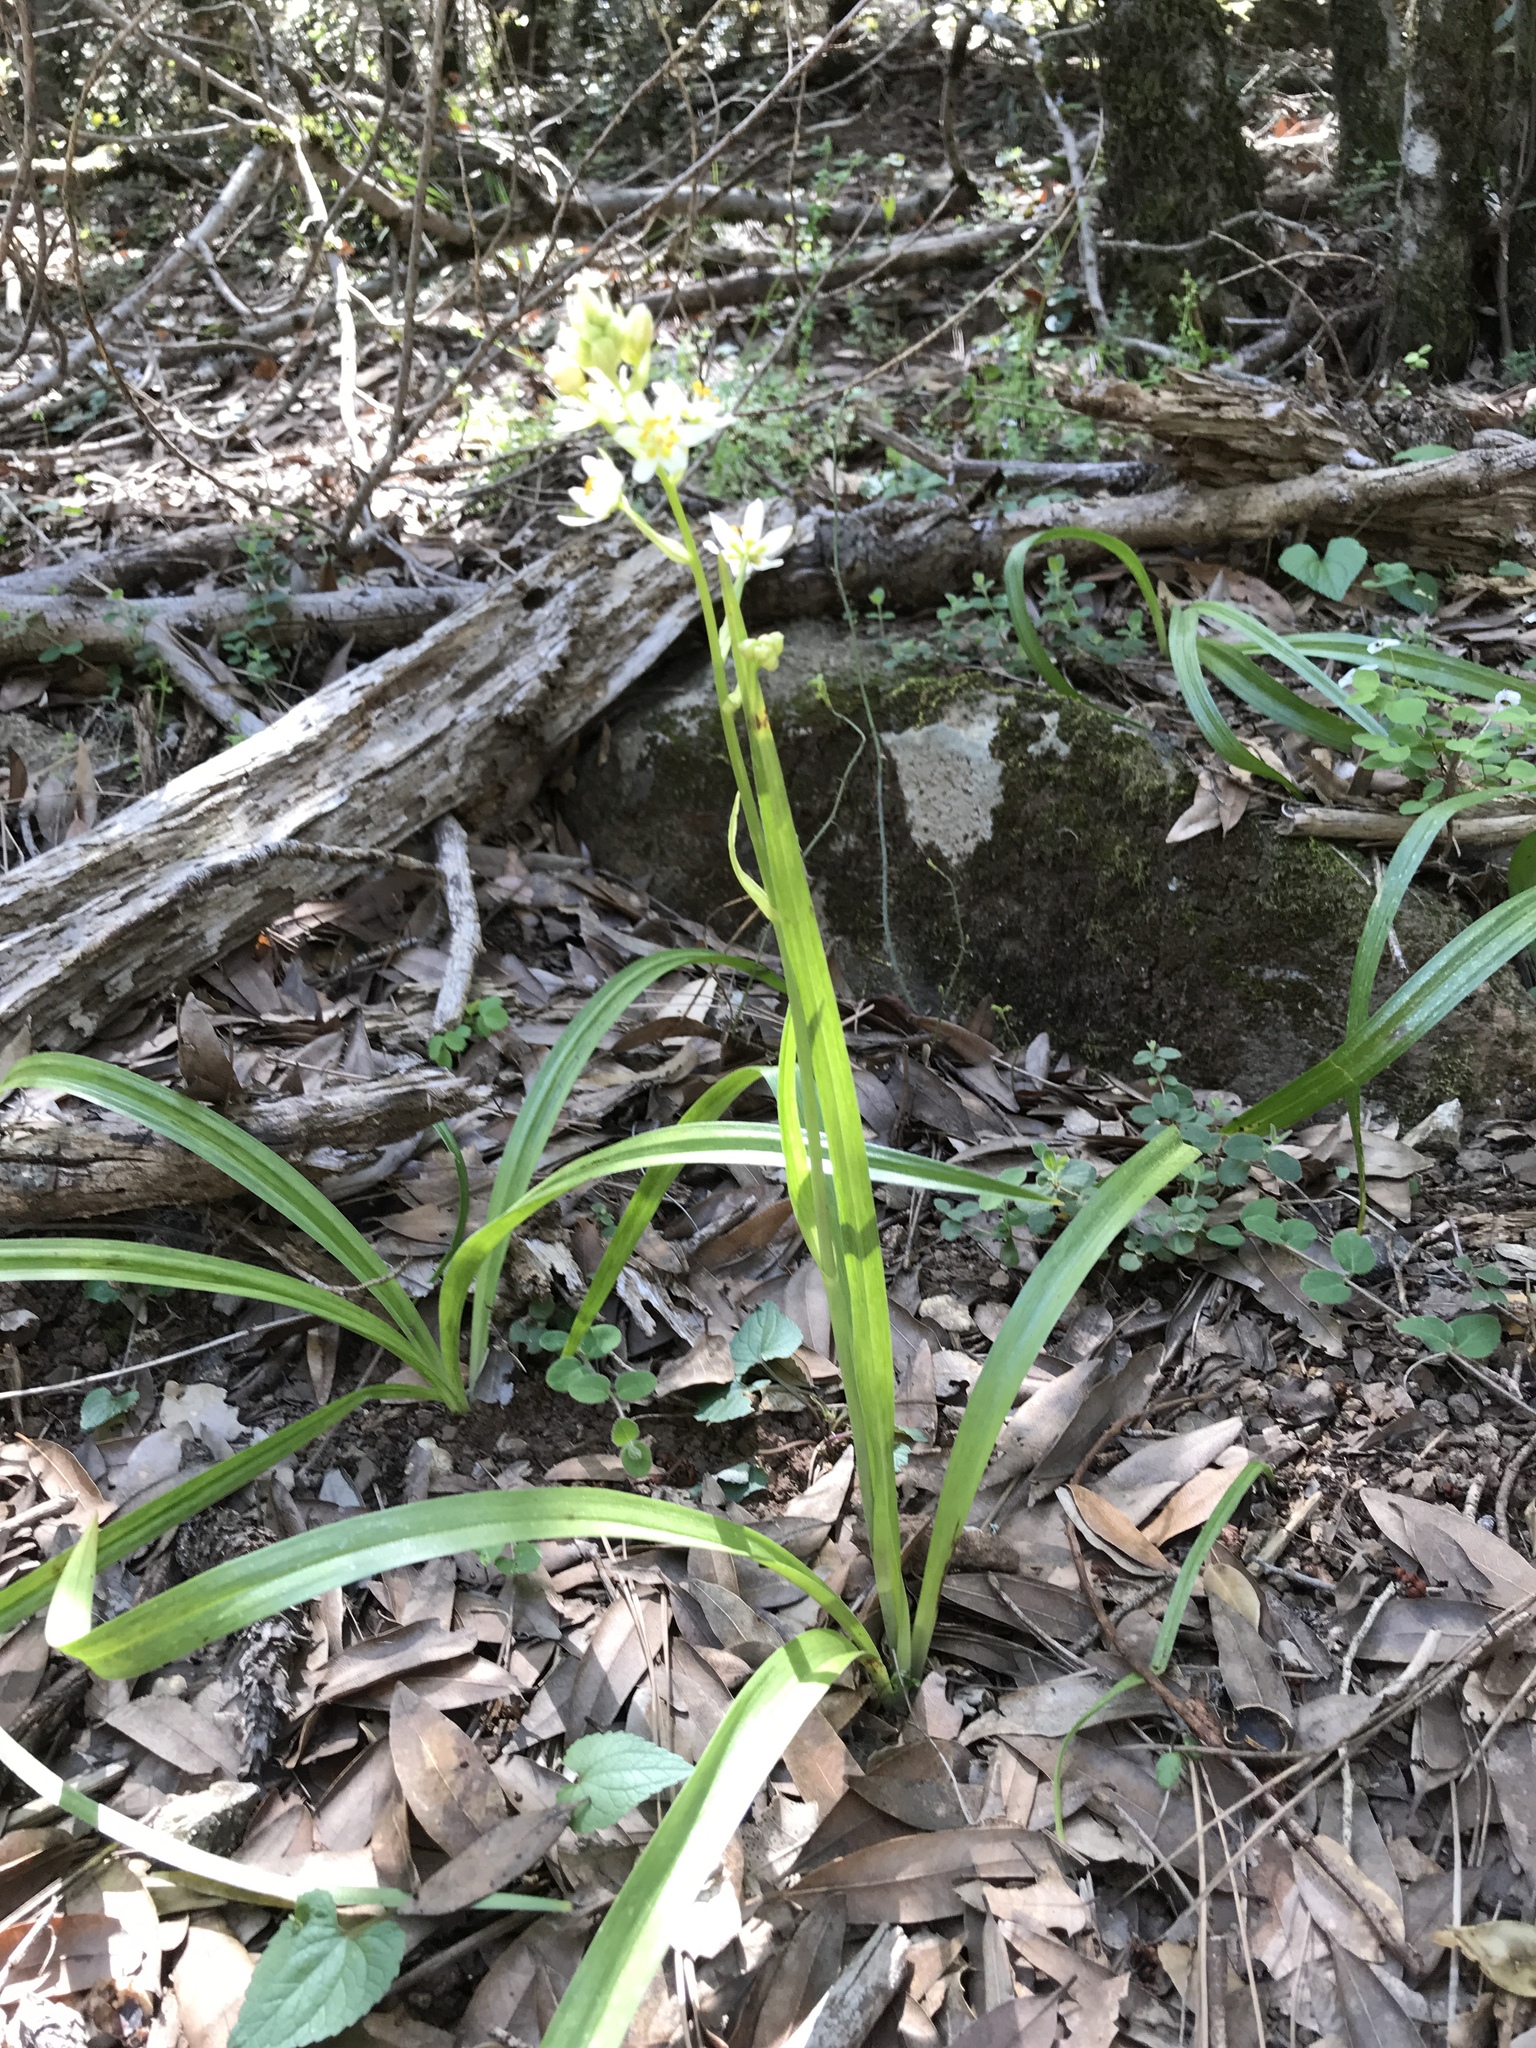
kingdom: Plantae
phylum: Tracheophyta
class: Liliopsida
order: Liliales
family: Melanthiaceae
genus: Toxicoscordion
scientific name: Toxicoscordion fremontii
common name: Fremont's death camas
